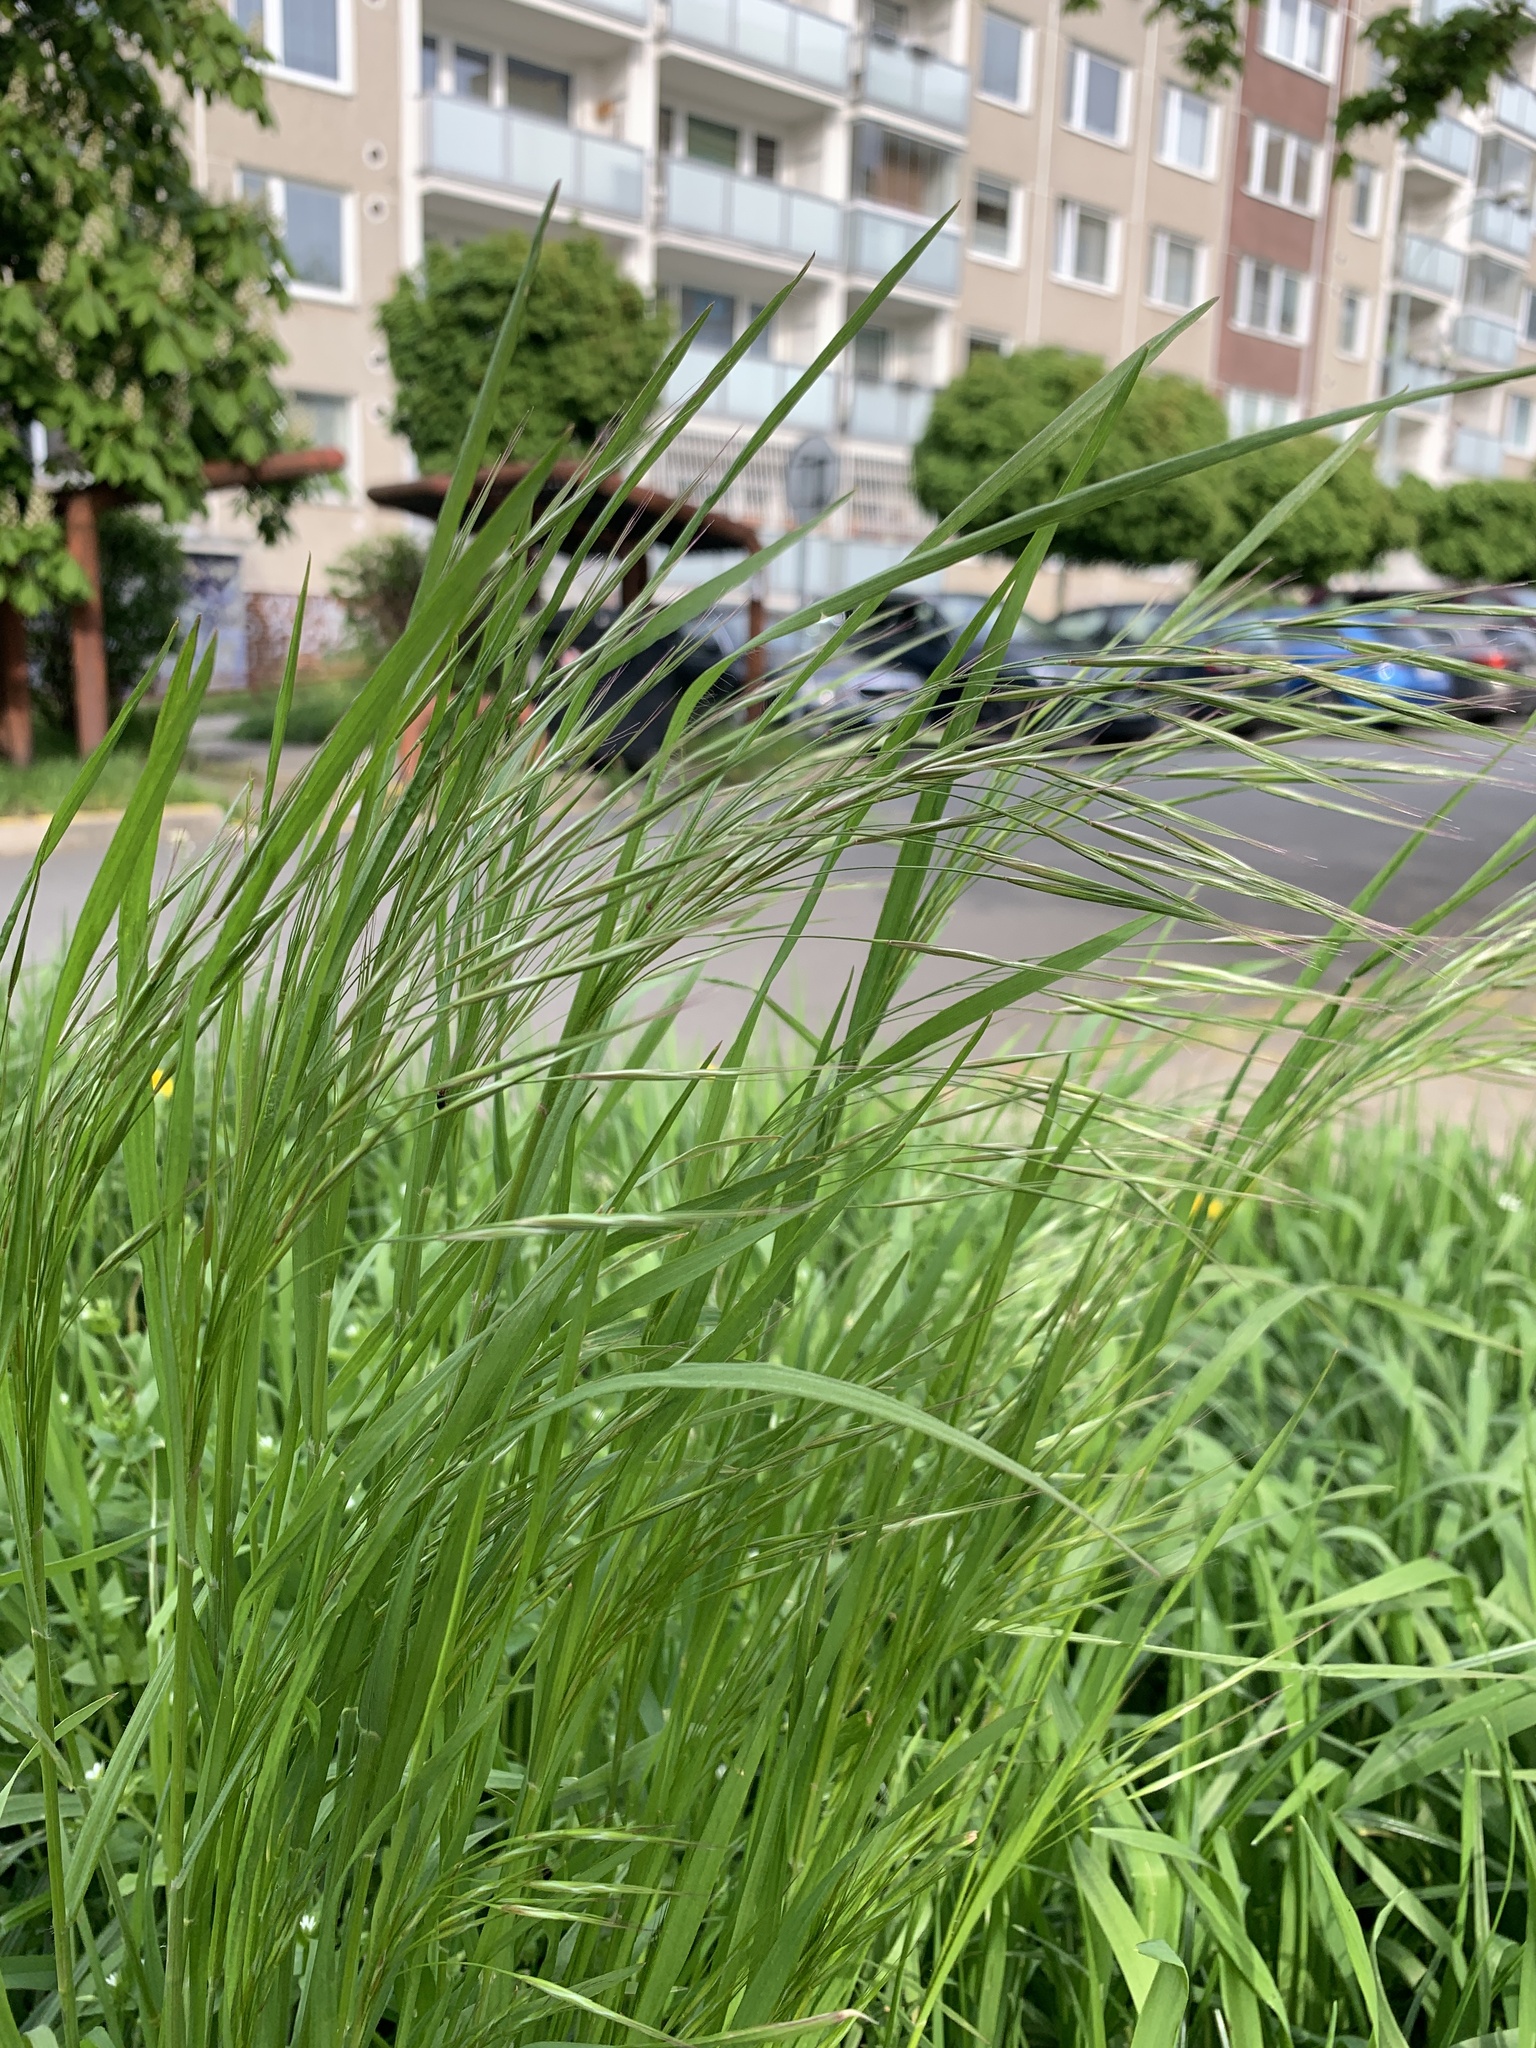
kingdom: Plantae
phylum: Tracheophyta
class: Liliopsida
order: Poales
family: Poaceae
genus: Bromus
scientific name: Bromus sterilis
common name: Poverty brome
